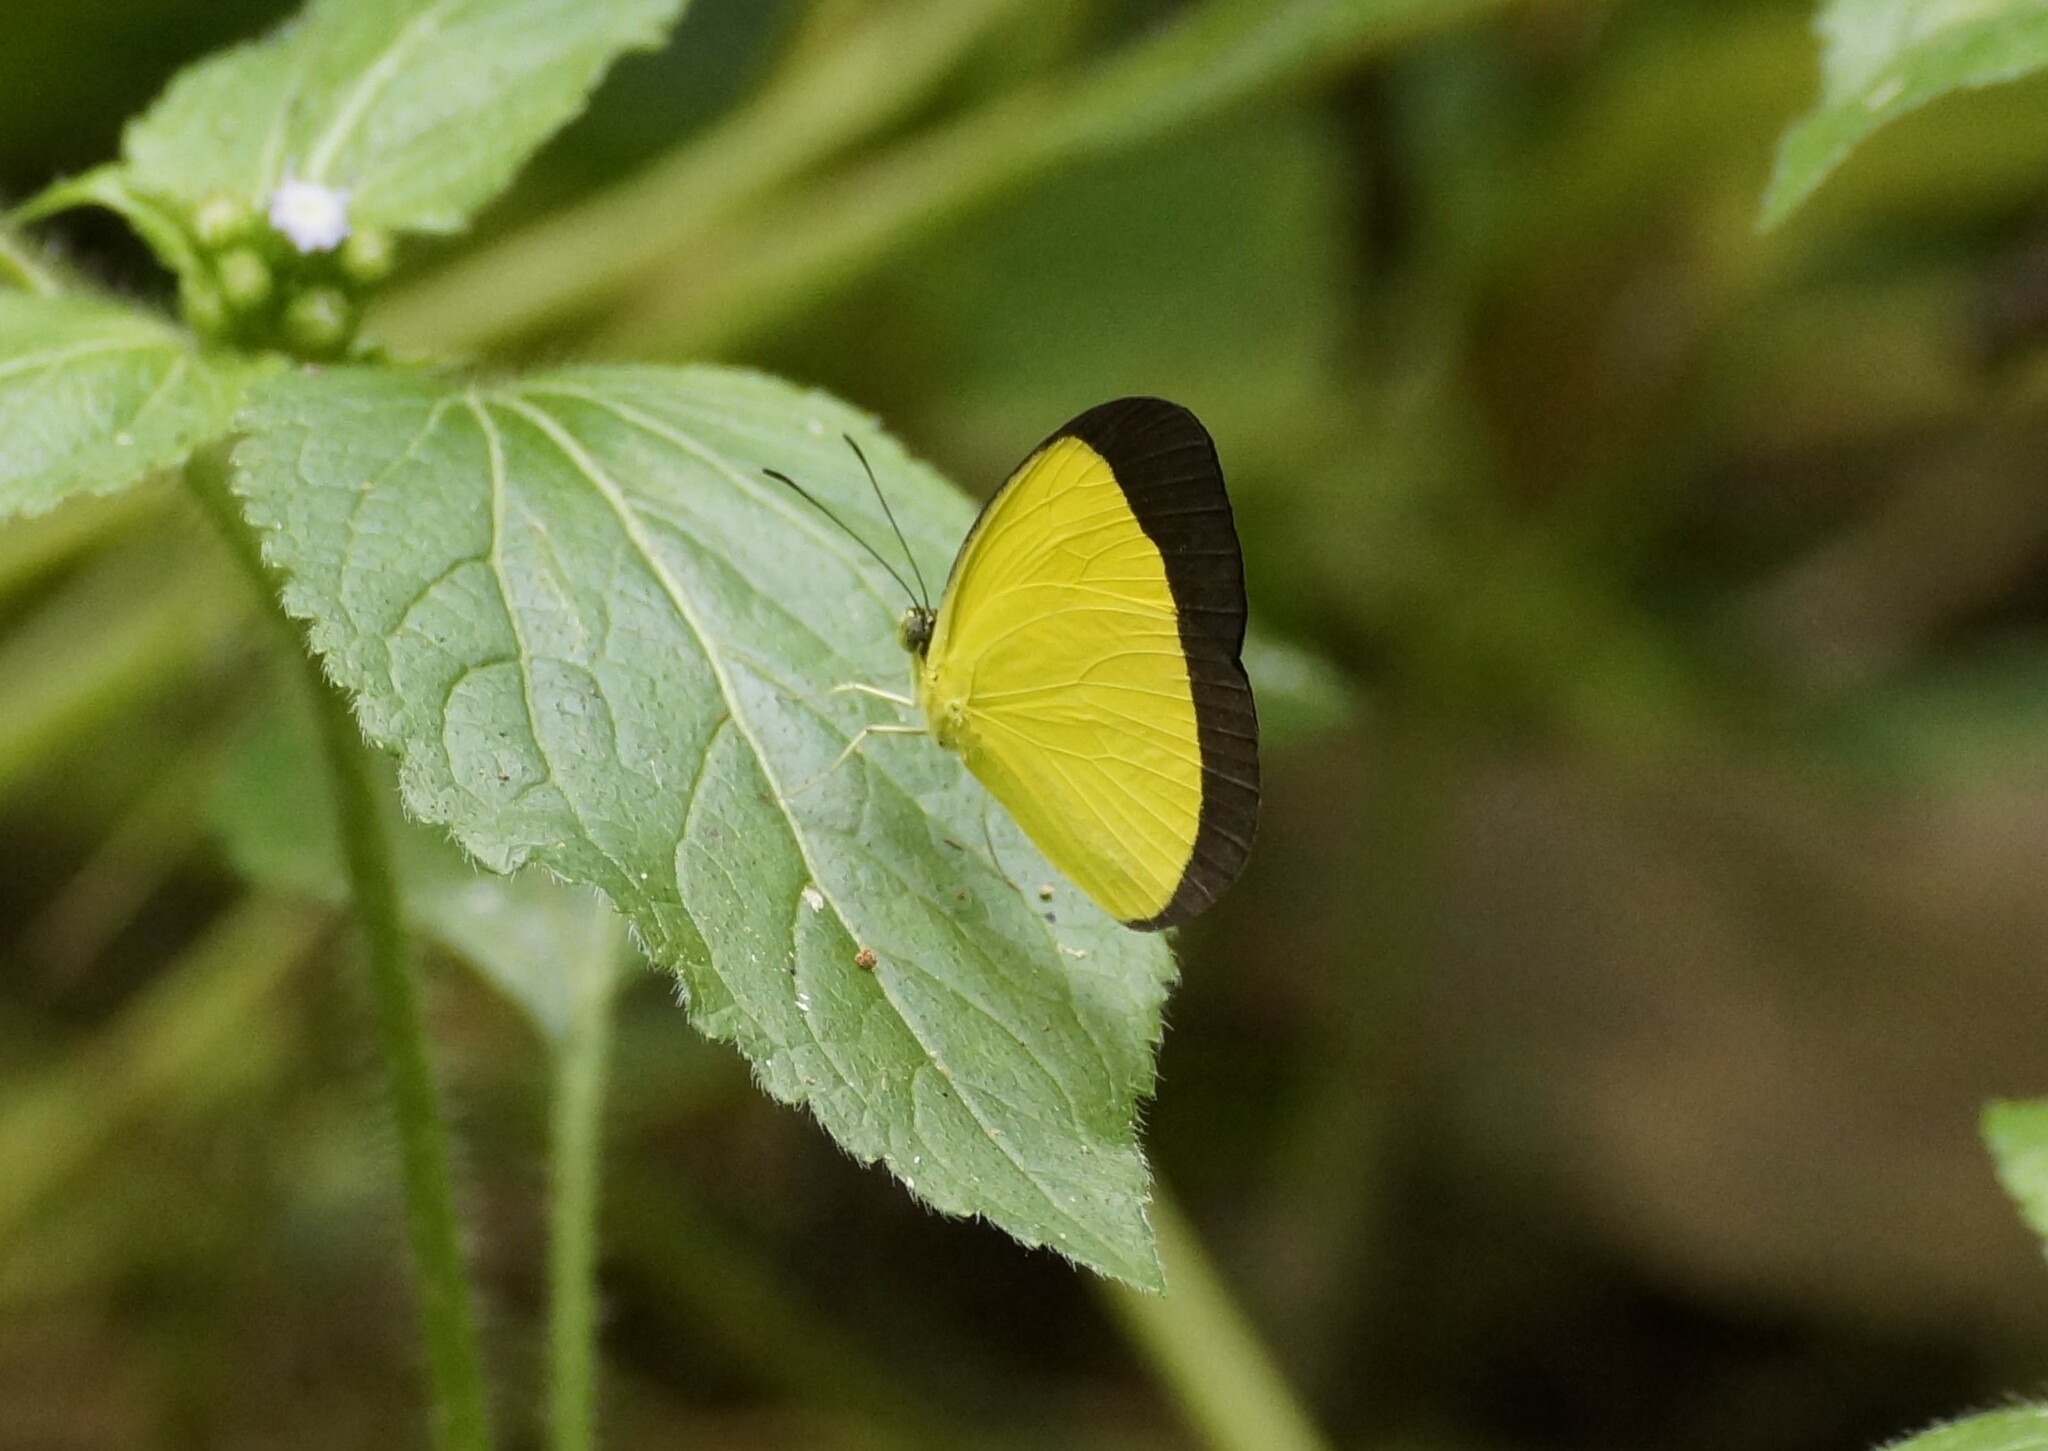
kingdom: Animalia
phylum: Arthropoda
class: Insecta
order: Lepidoptera
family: Pieridae
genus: Eurema
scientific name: Eurema puella
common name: Broad margined grass yellow
